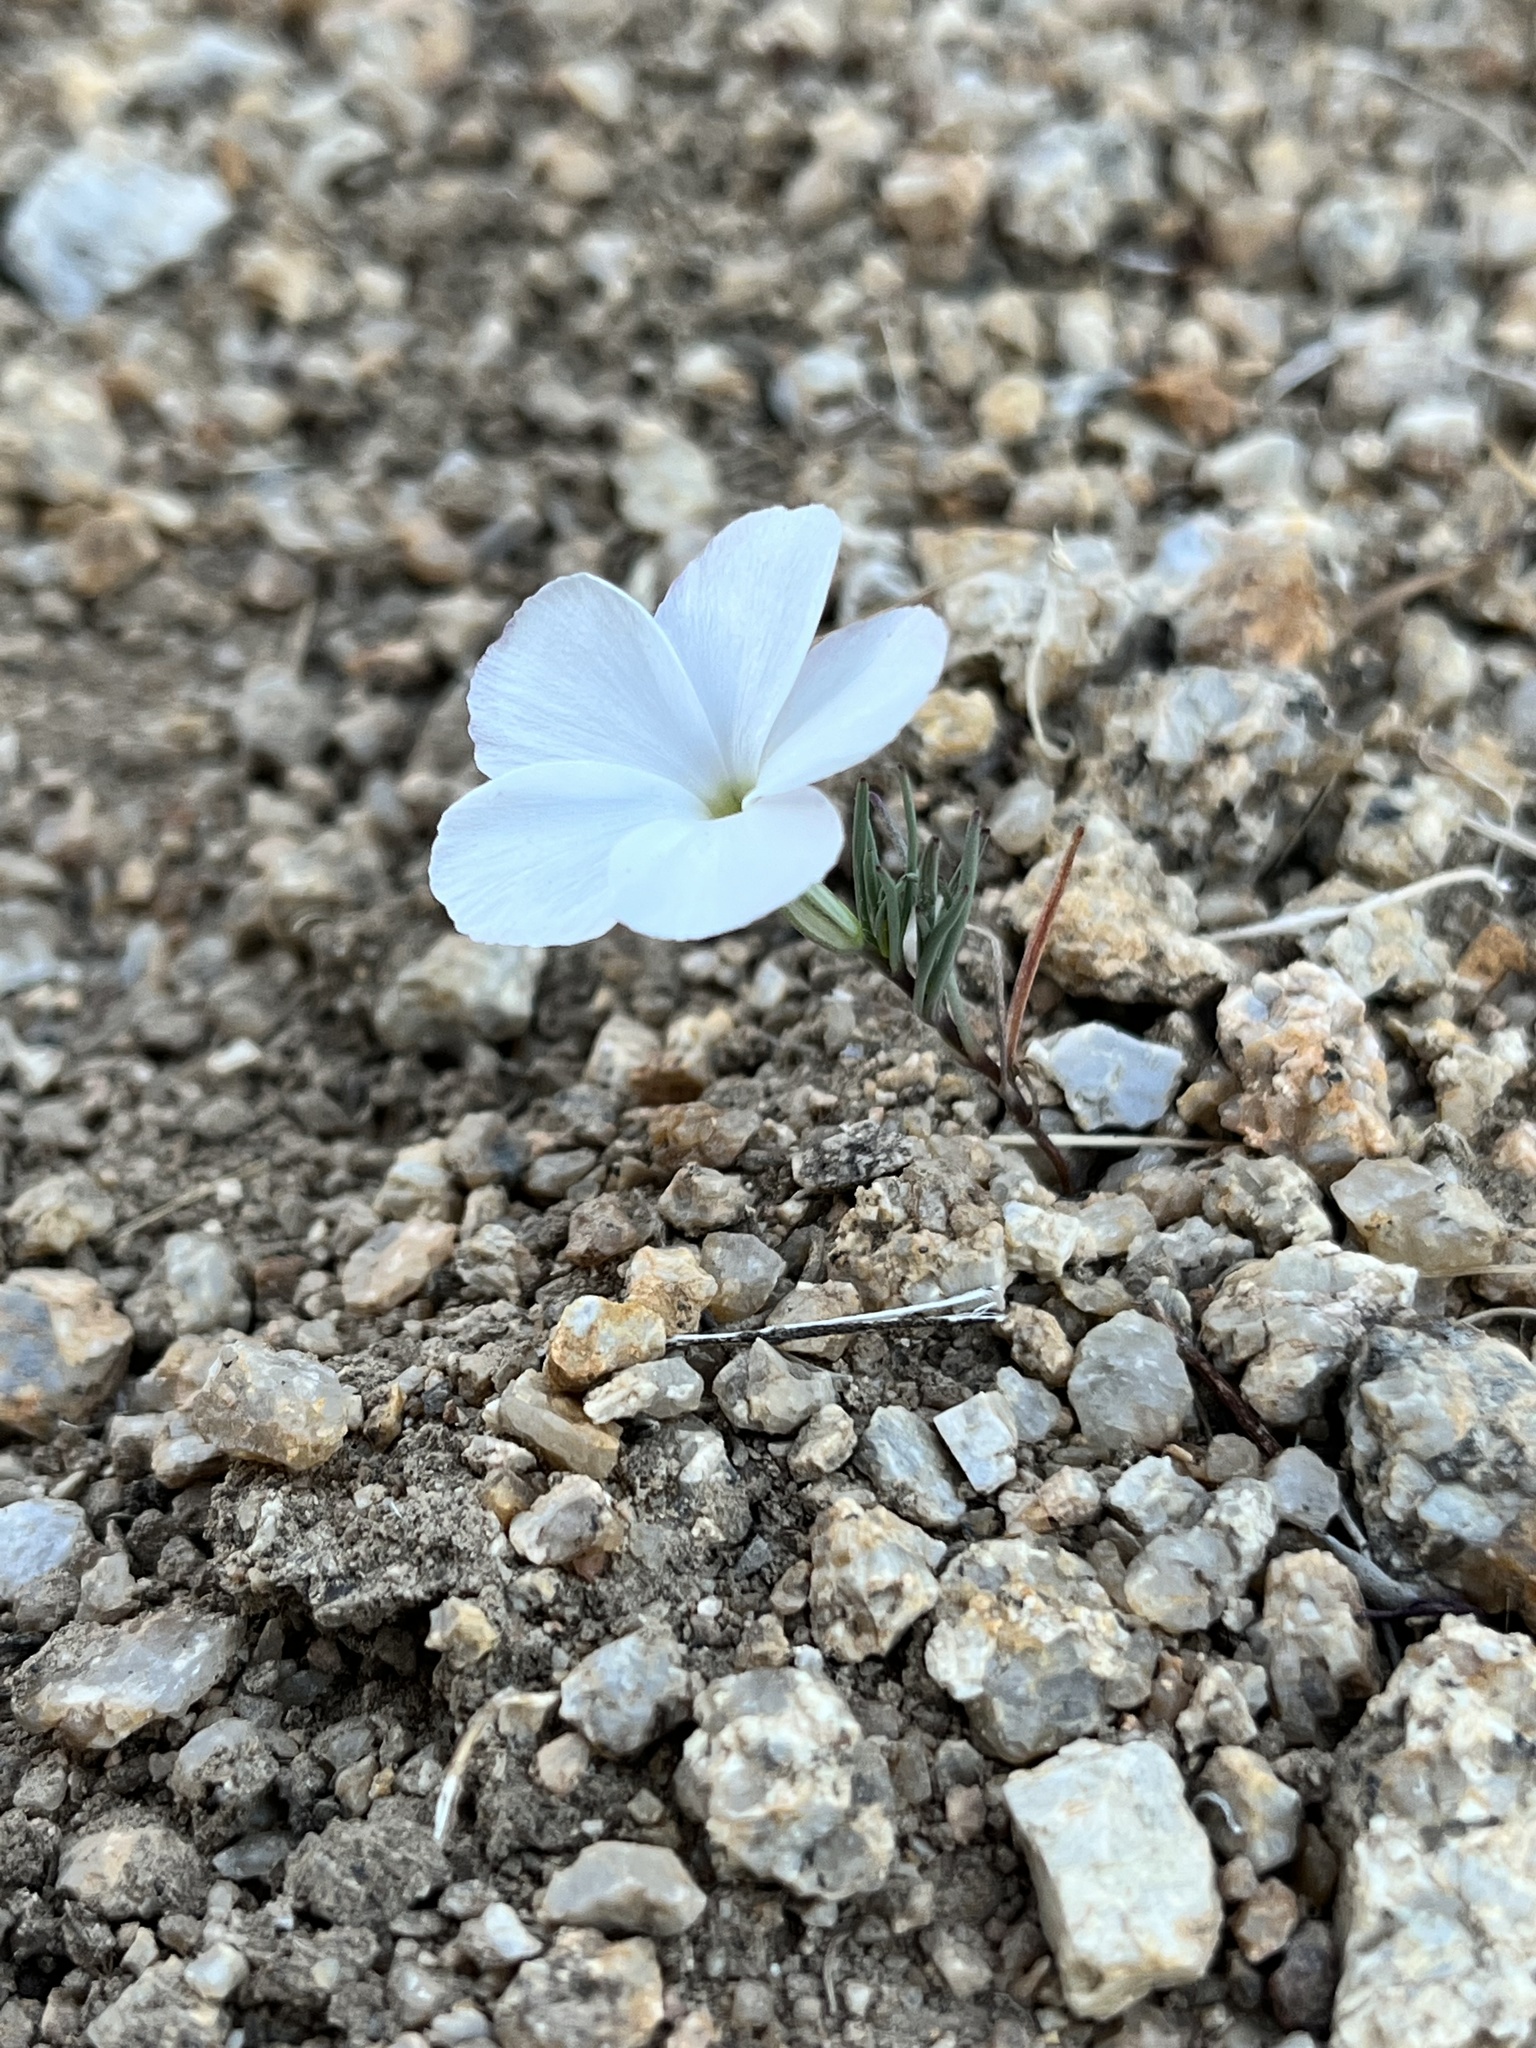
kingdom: Plantae
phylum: Tracheophyta
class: Magnoliopsida
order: Ericales
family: Polemoniaceae
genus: Linanthus
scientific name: Linanthus dichotomus
